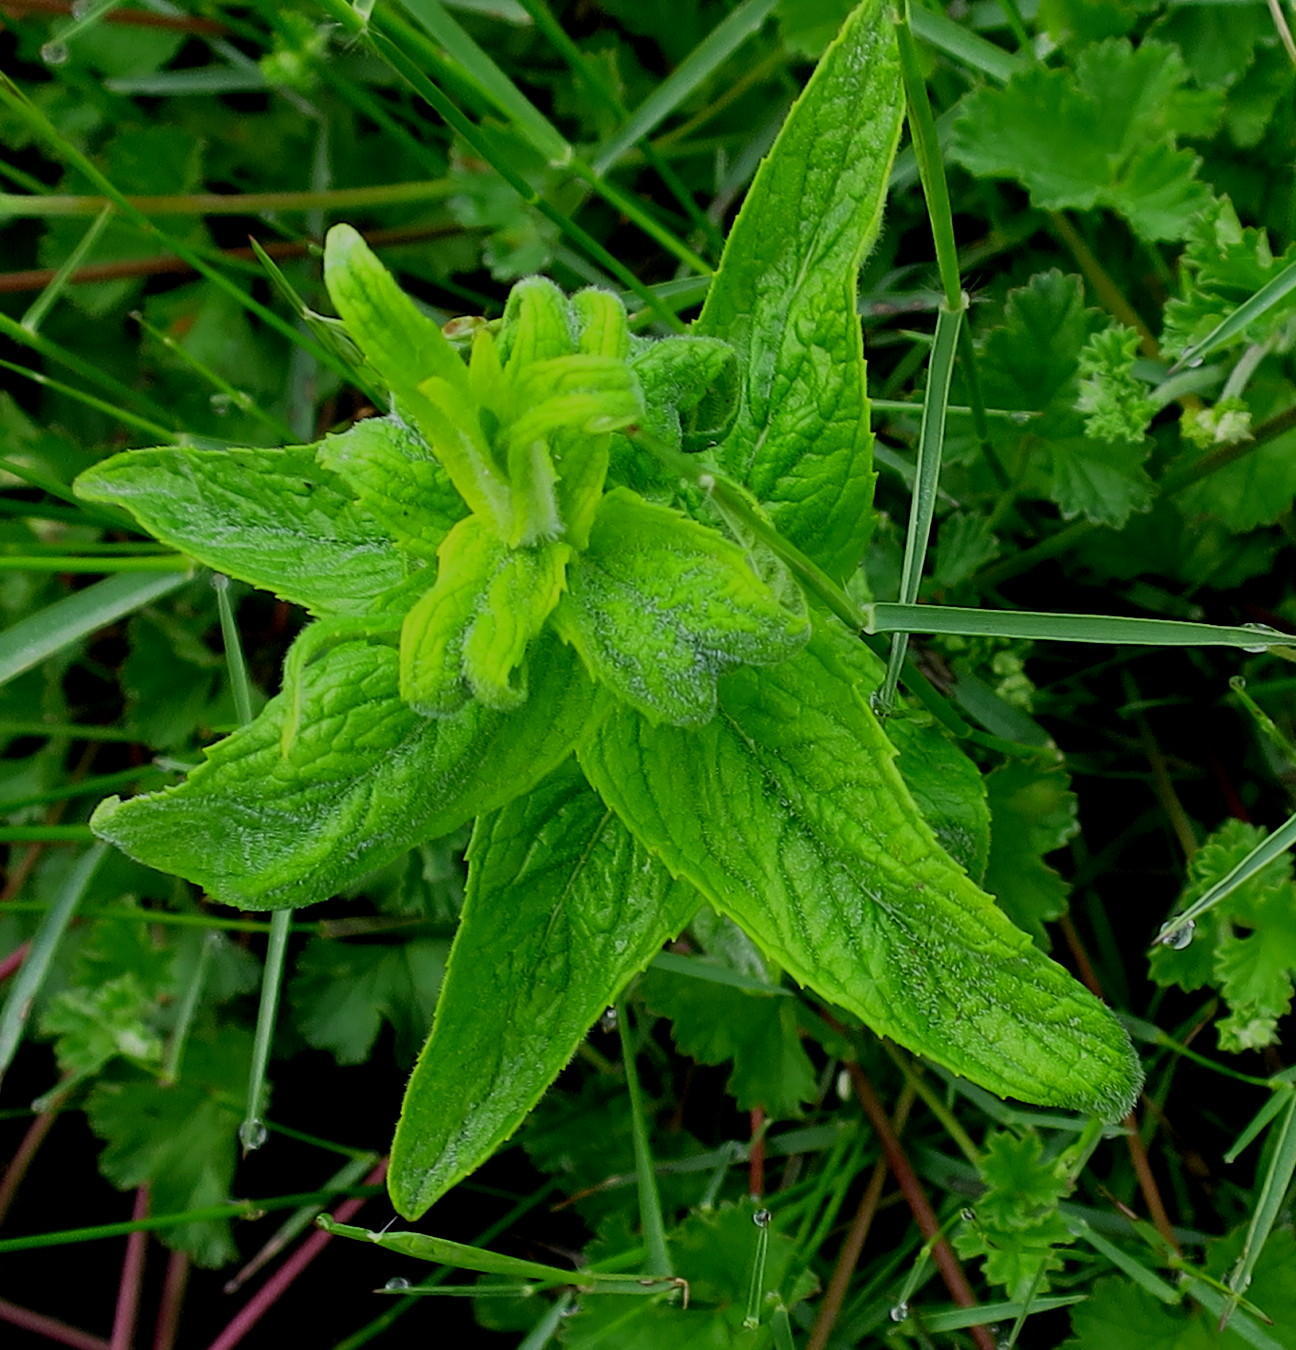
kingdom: Plantae
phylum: Tracheophyta
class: Magnoliopsida
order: Lamiales
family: Lamiaceae
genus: Mentha
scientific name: Mentha longifolia
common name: Horse mint
